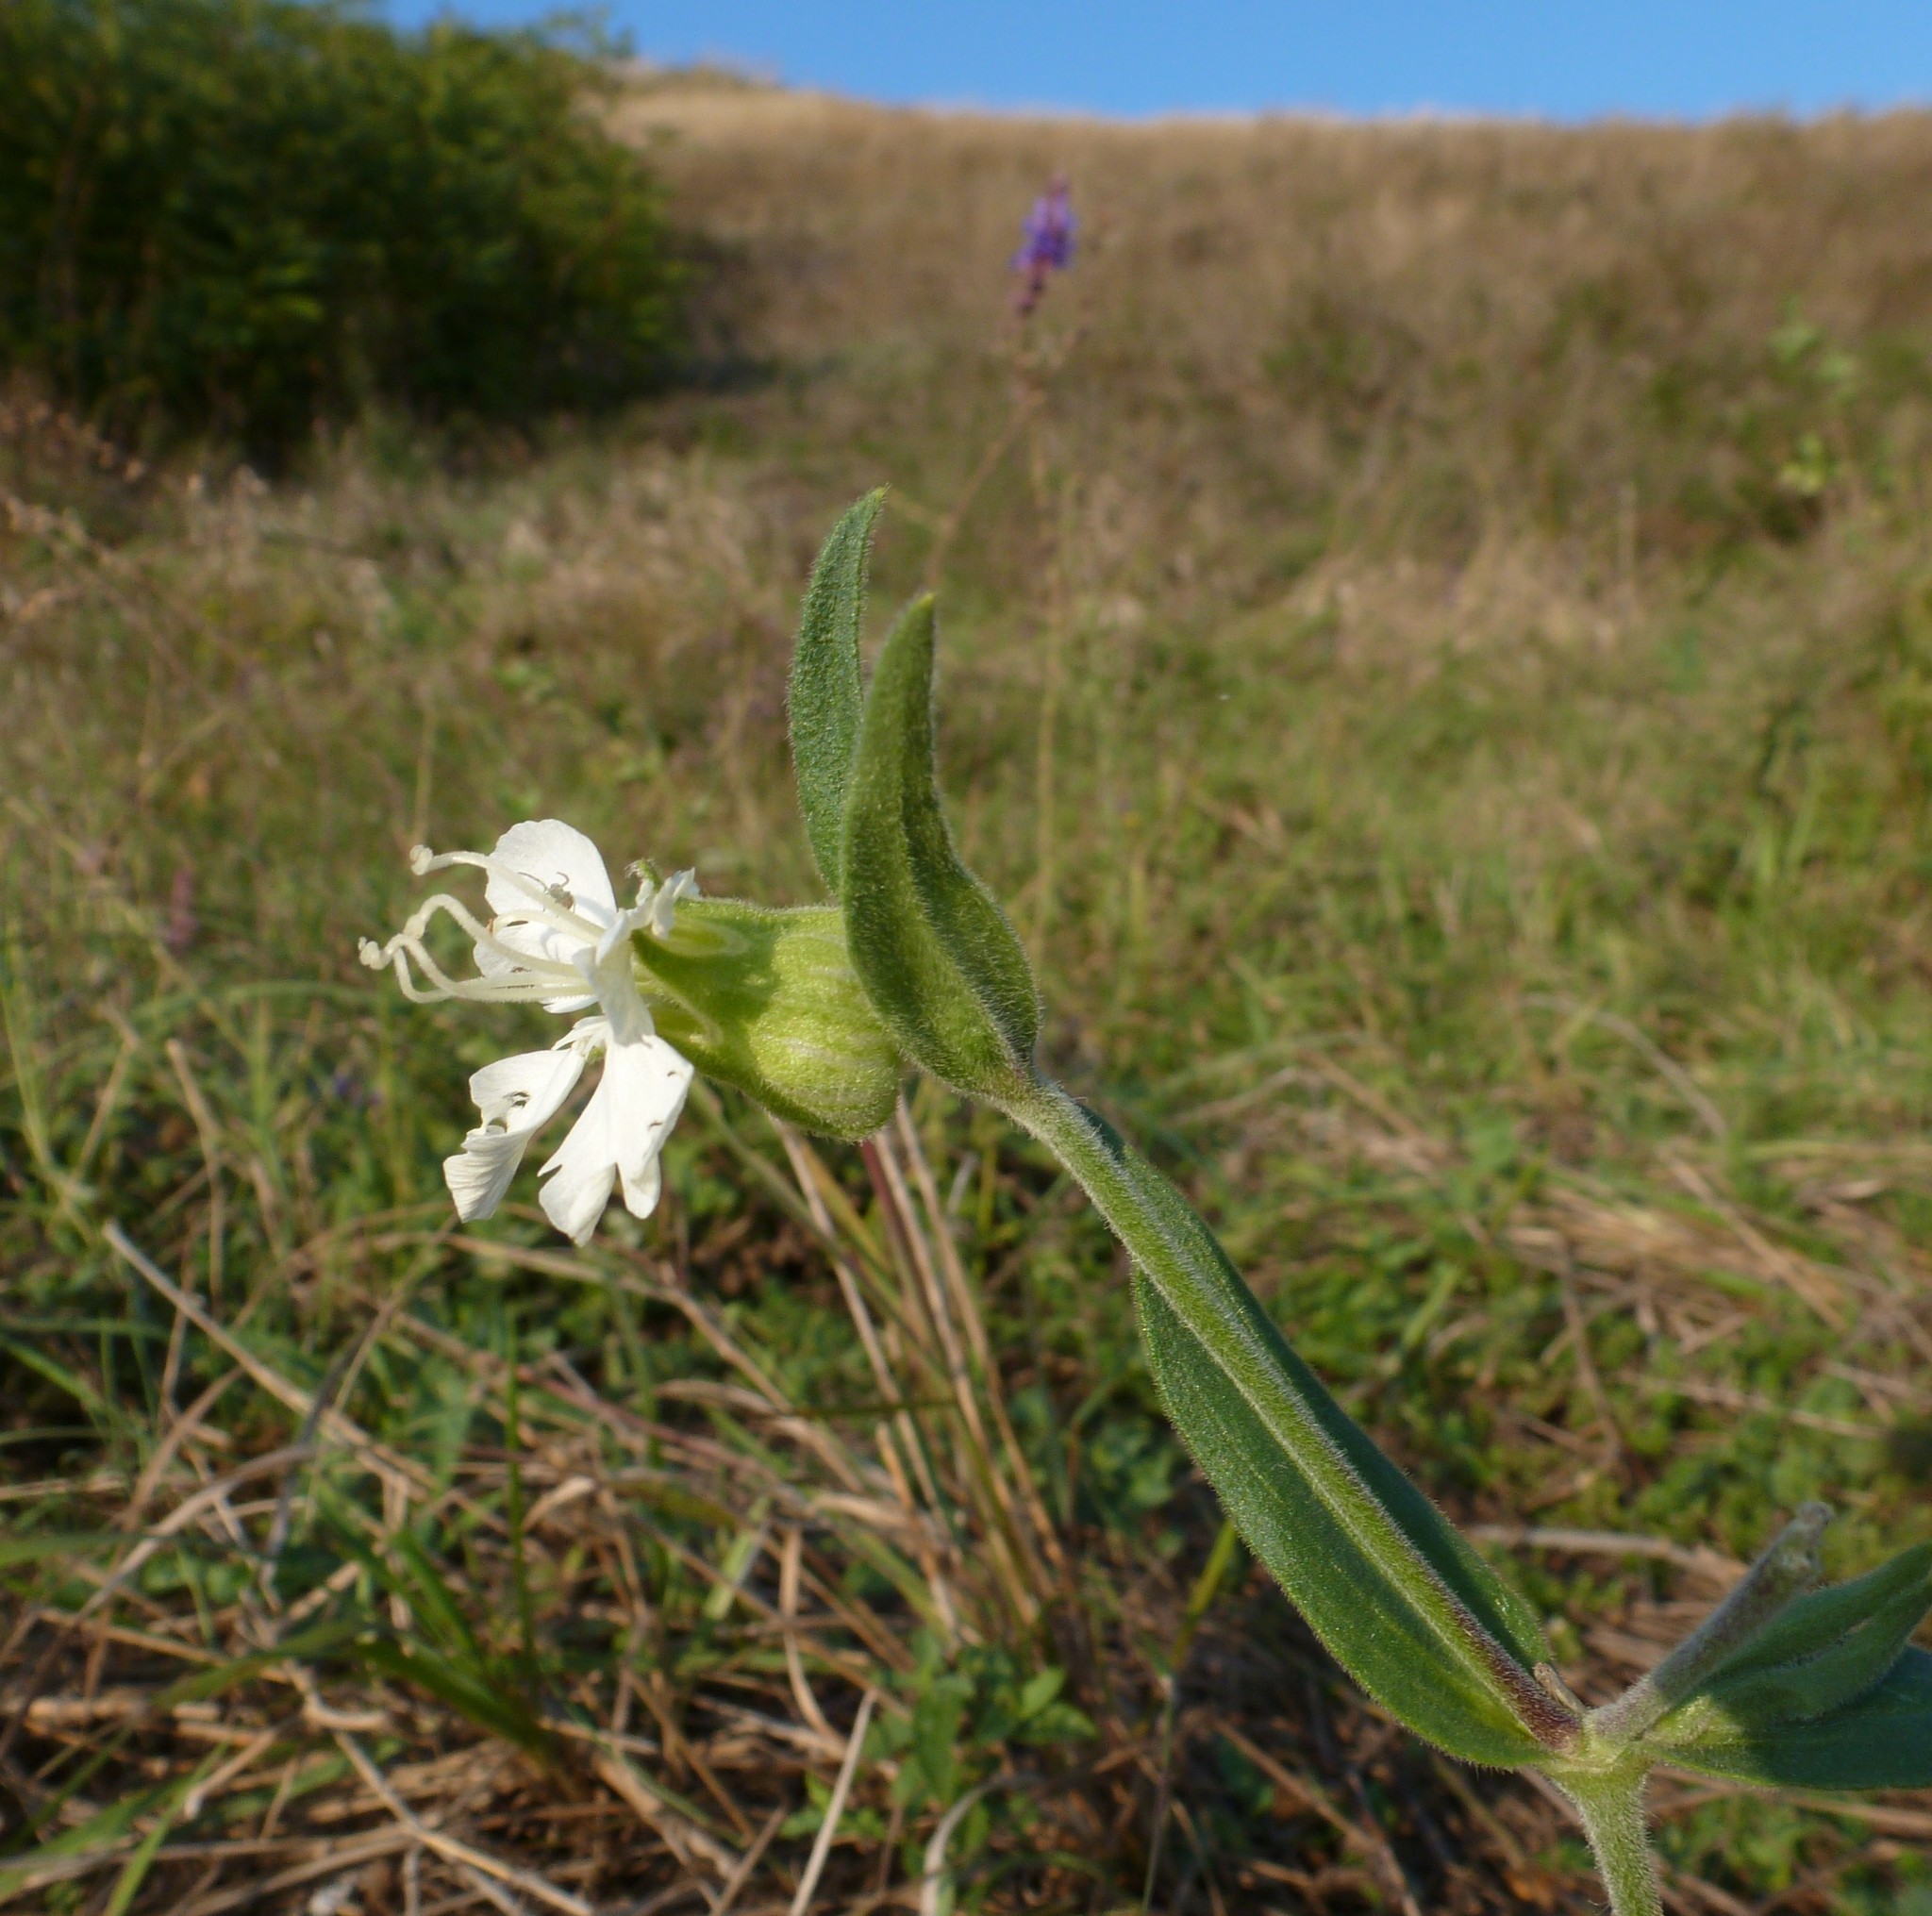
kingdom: Plantae
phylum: Tracheophyta
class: Magnoliopsida
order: Caryophyllales
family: Caryophyllaceae
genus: Silene
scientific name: Silene latifolia
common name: White campion
